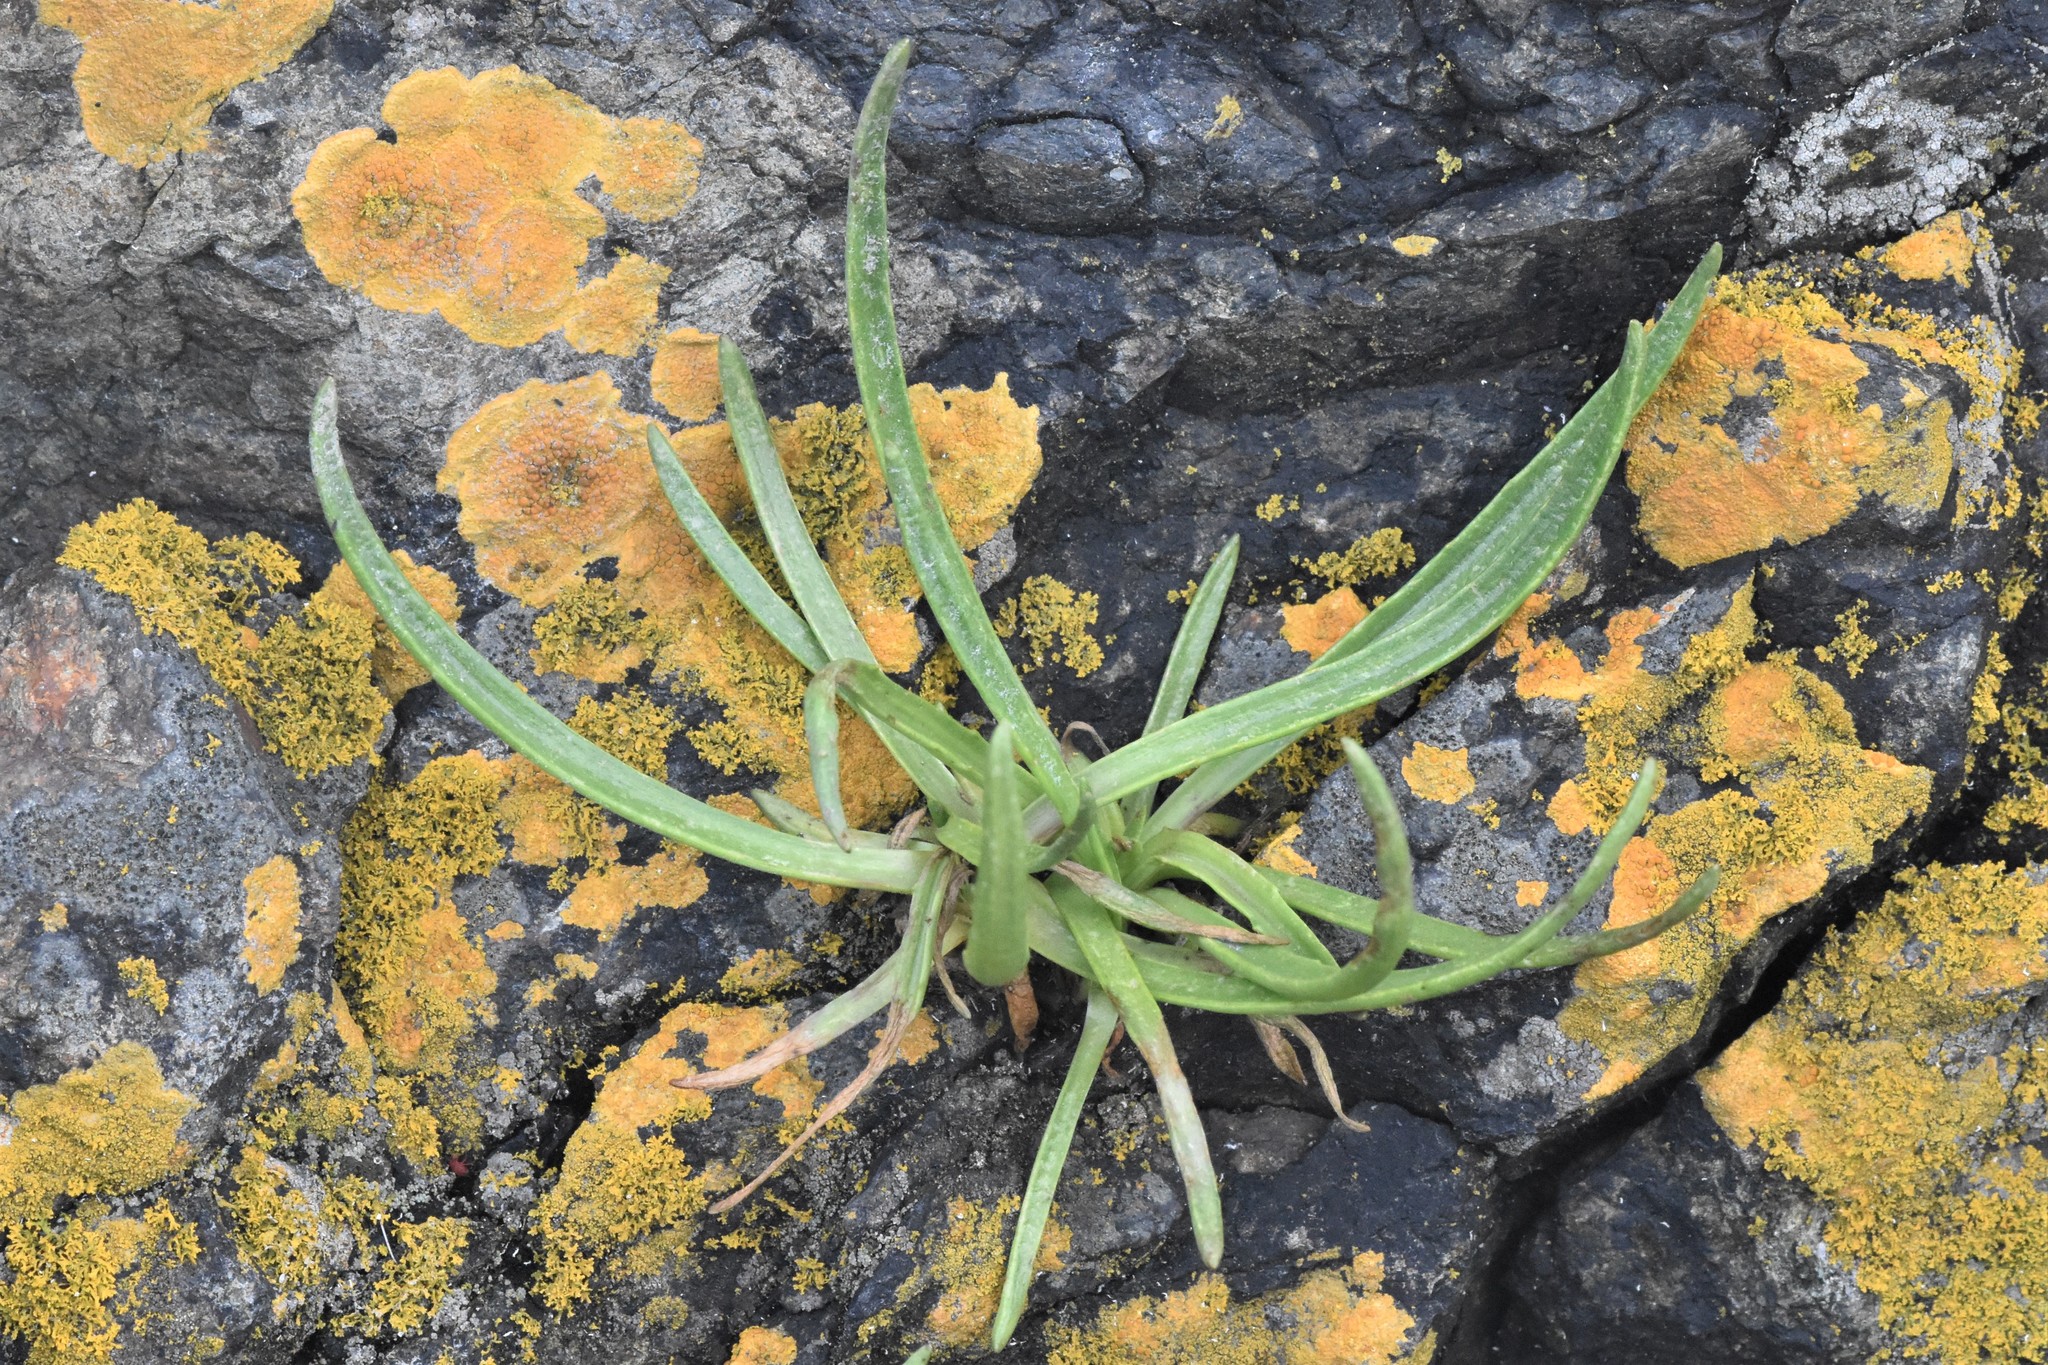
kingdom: Plantae
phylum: Tracheophyta
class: Magnoliopsida
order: Lamiales
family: Plantaginaceae
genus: Plantago
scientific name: Plantago maritima
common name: Sea plantain
